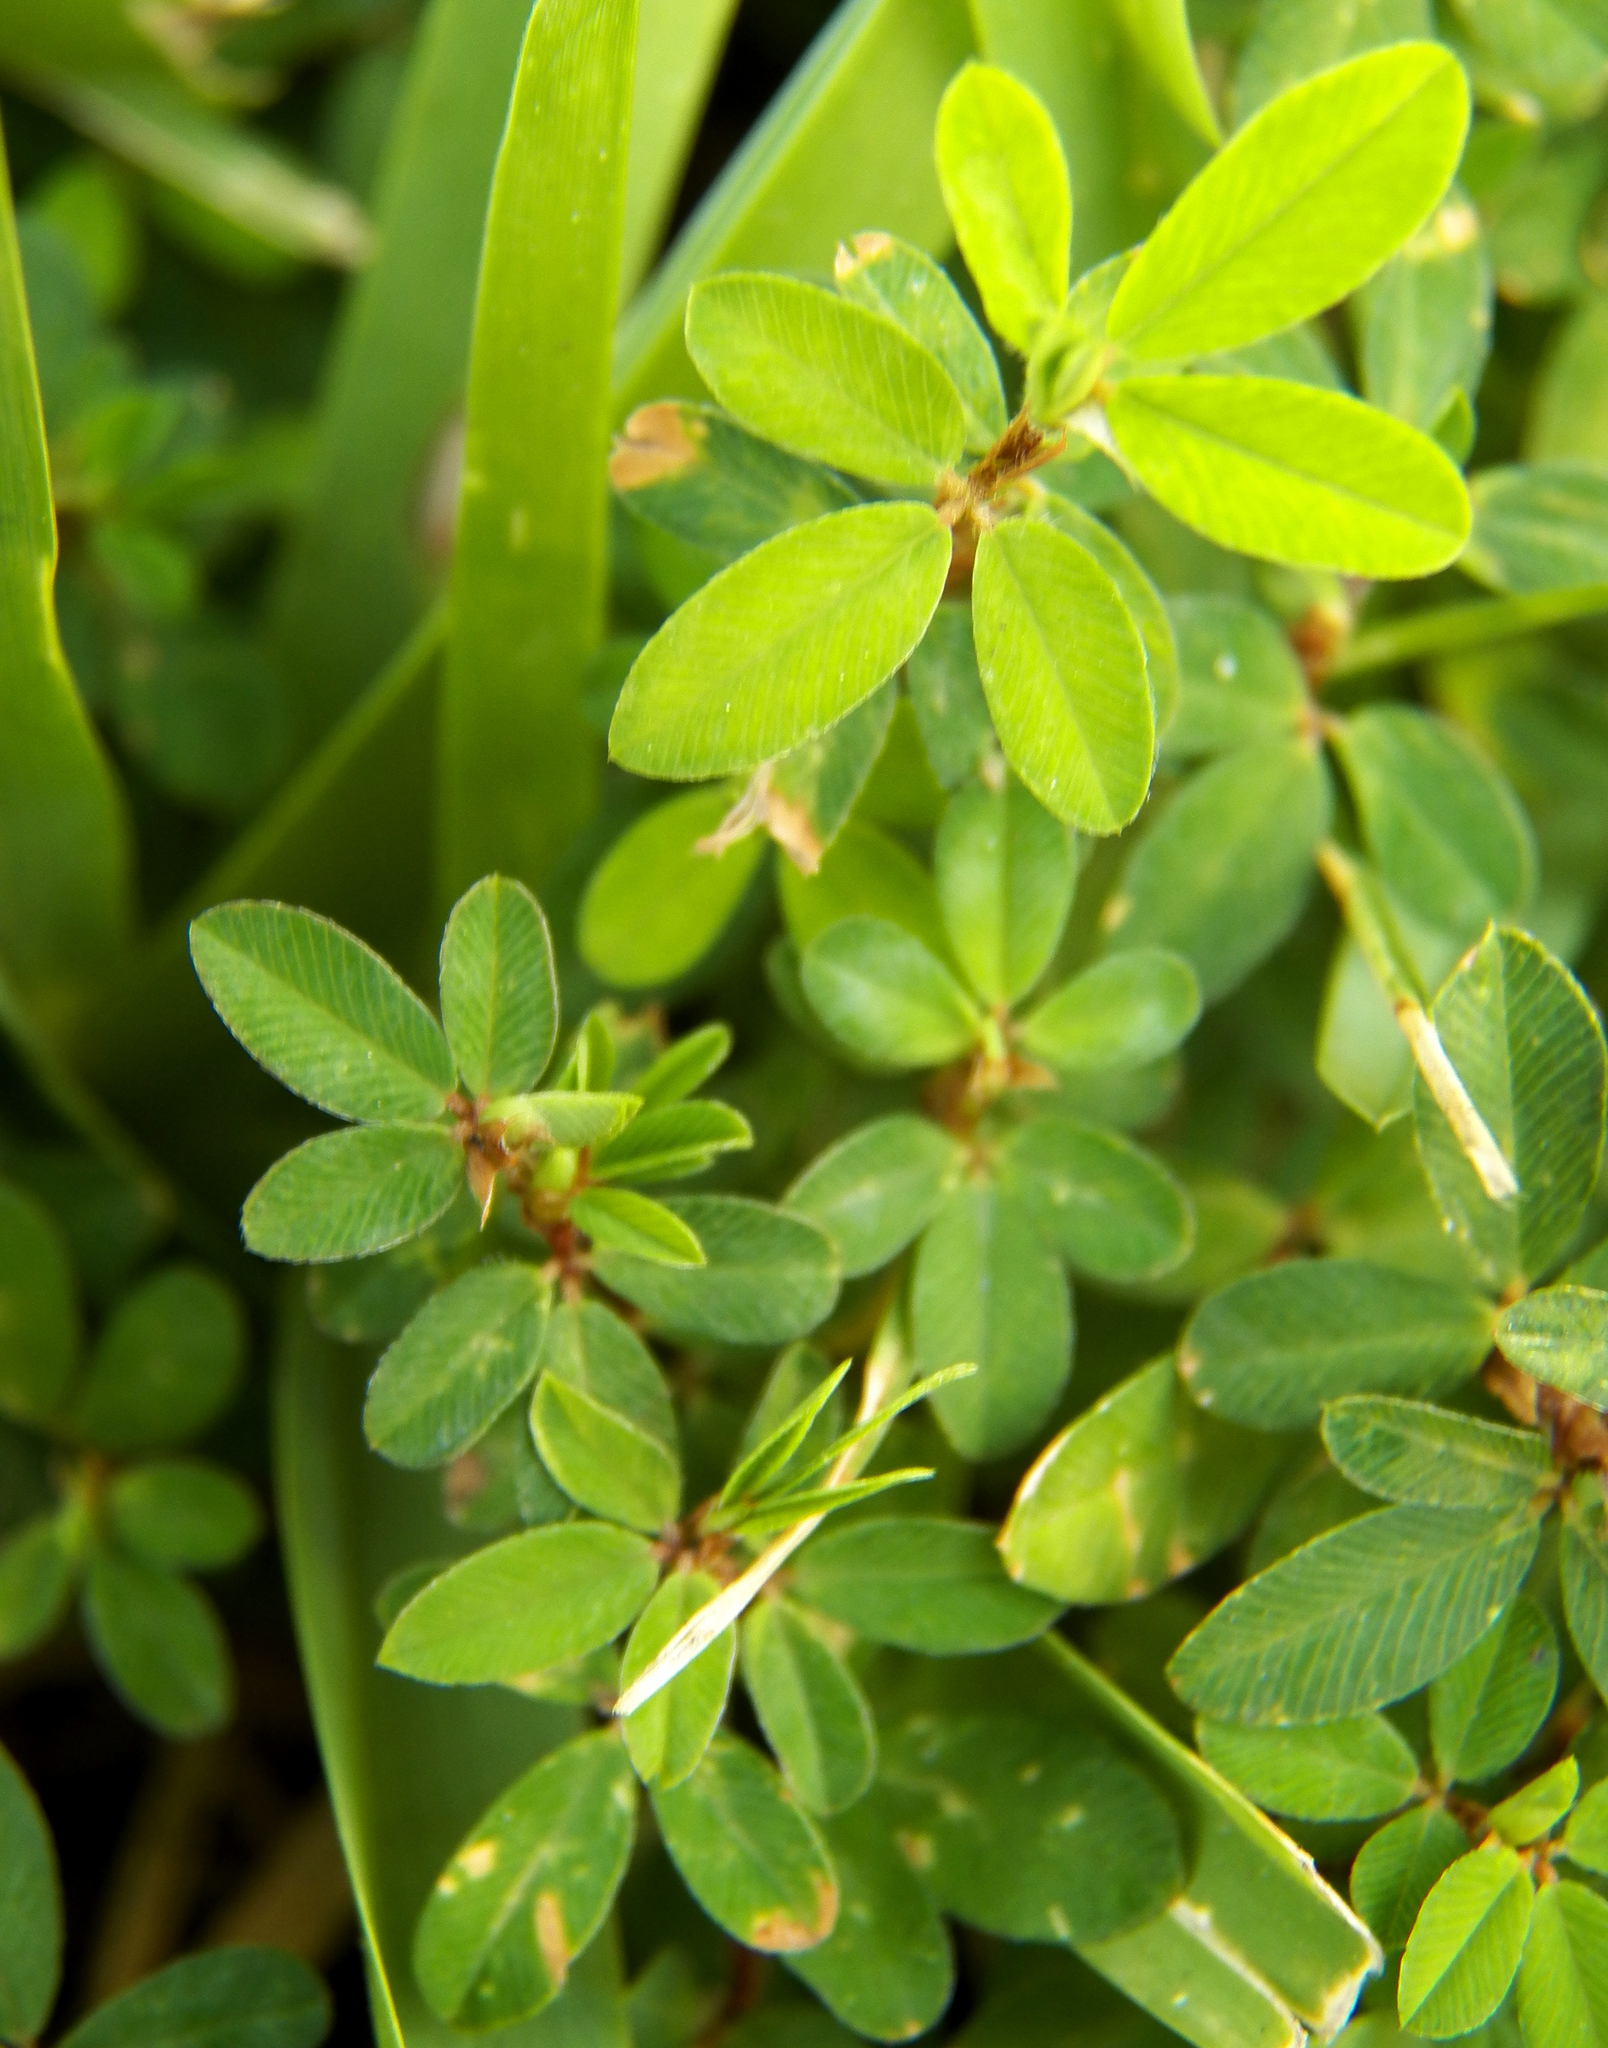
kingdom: Plantae
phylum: Tracheophyta
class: Magnoliopsida
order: Fabales
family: Fabaceae
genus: Kummerowia
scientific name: Kummerowia striata
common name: Japanese clover
